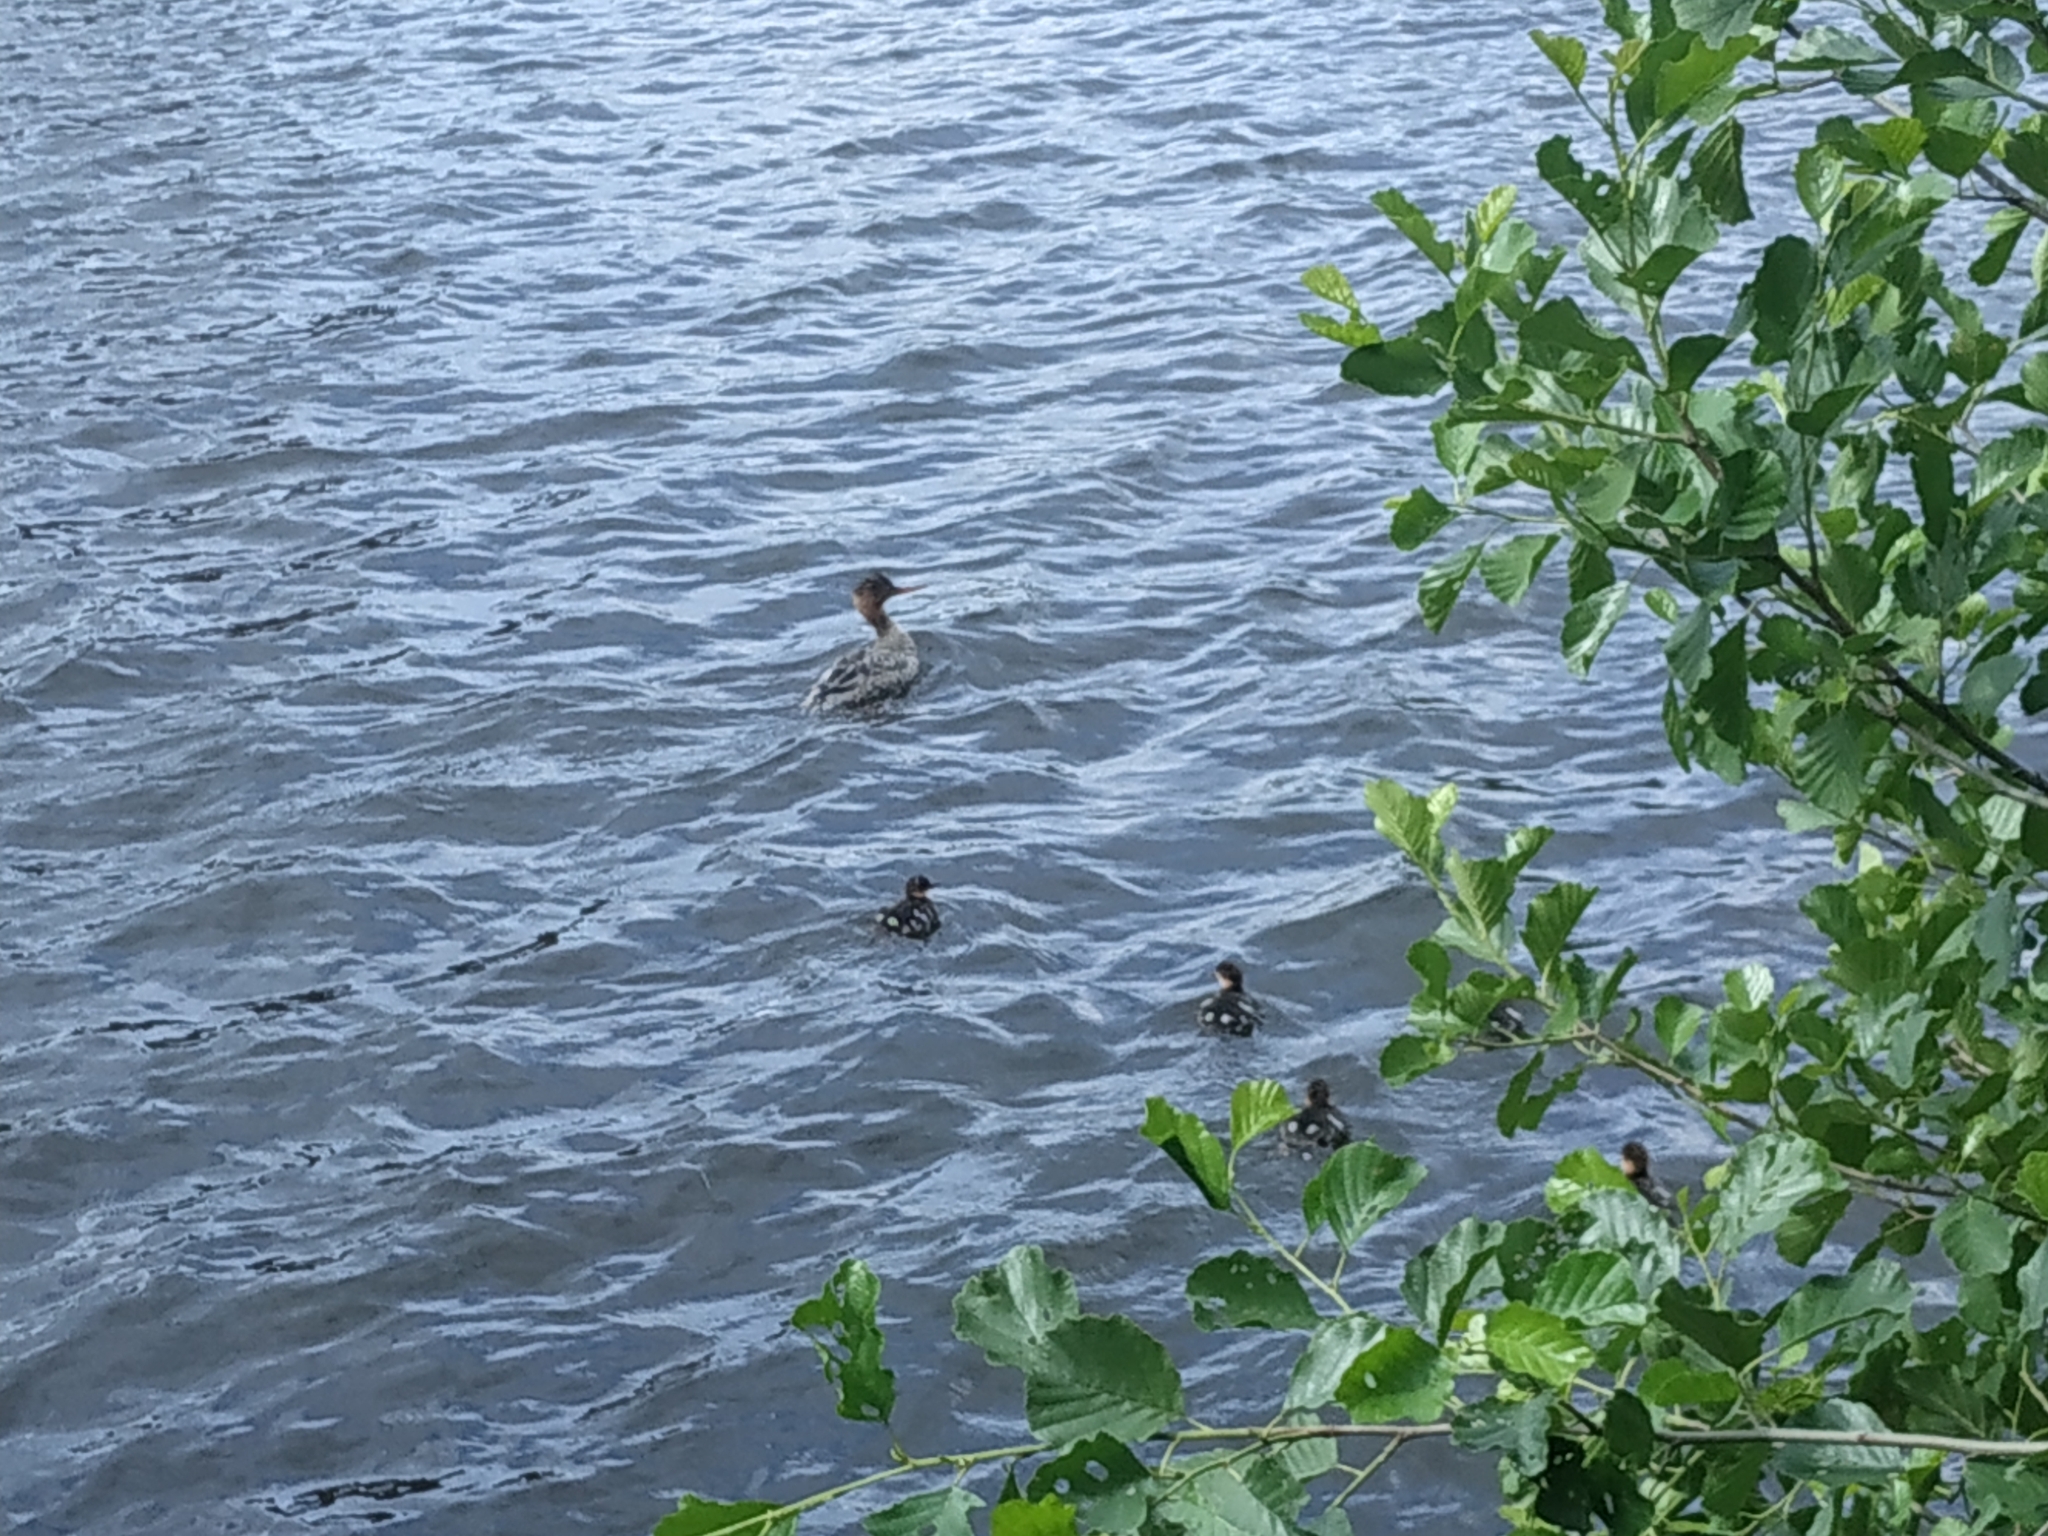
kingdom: Animalia
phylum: Chordata
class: Aves
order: Anseriformes
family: Anatidae
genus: Mergus
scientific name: Mergus serrator
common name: Red-breasted merganser
